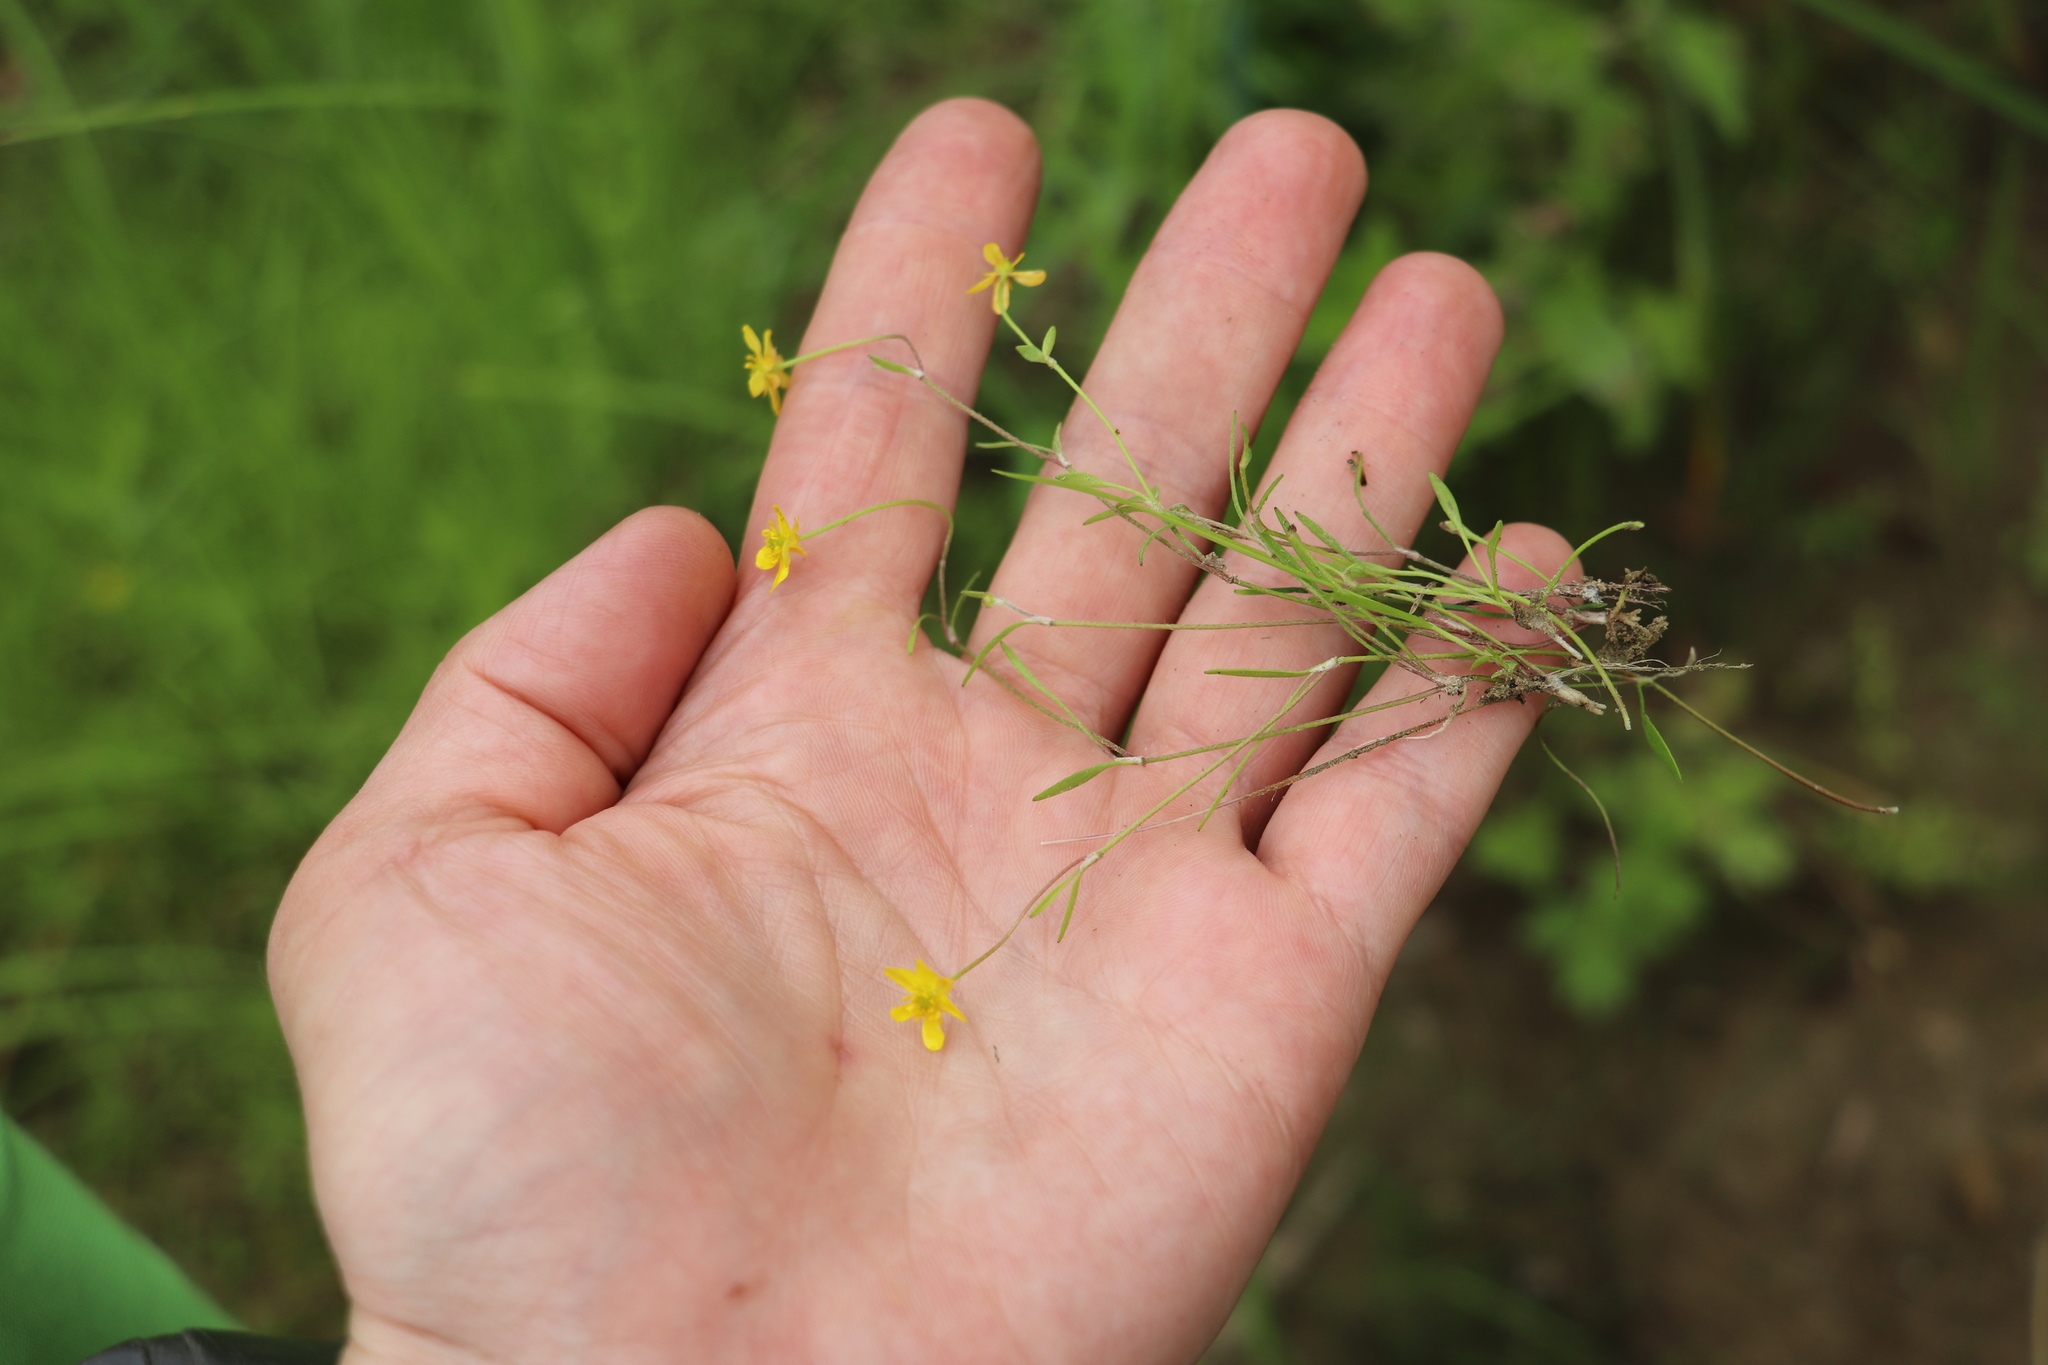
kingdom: Plantae
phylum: Tracheophyta
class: Magnoliopsida
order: Ranunculales
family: Ranunculaceae
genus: Ranunculus
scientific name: Ranunculus reptans
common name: Creeping spearwort
